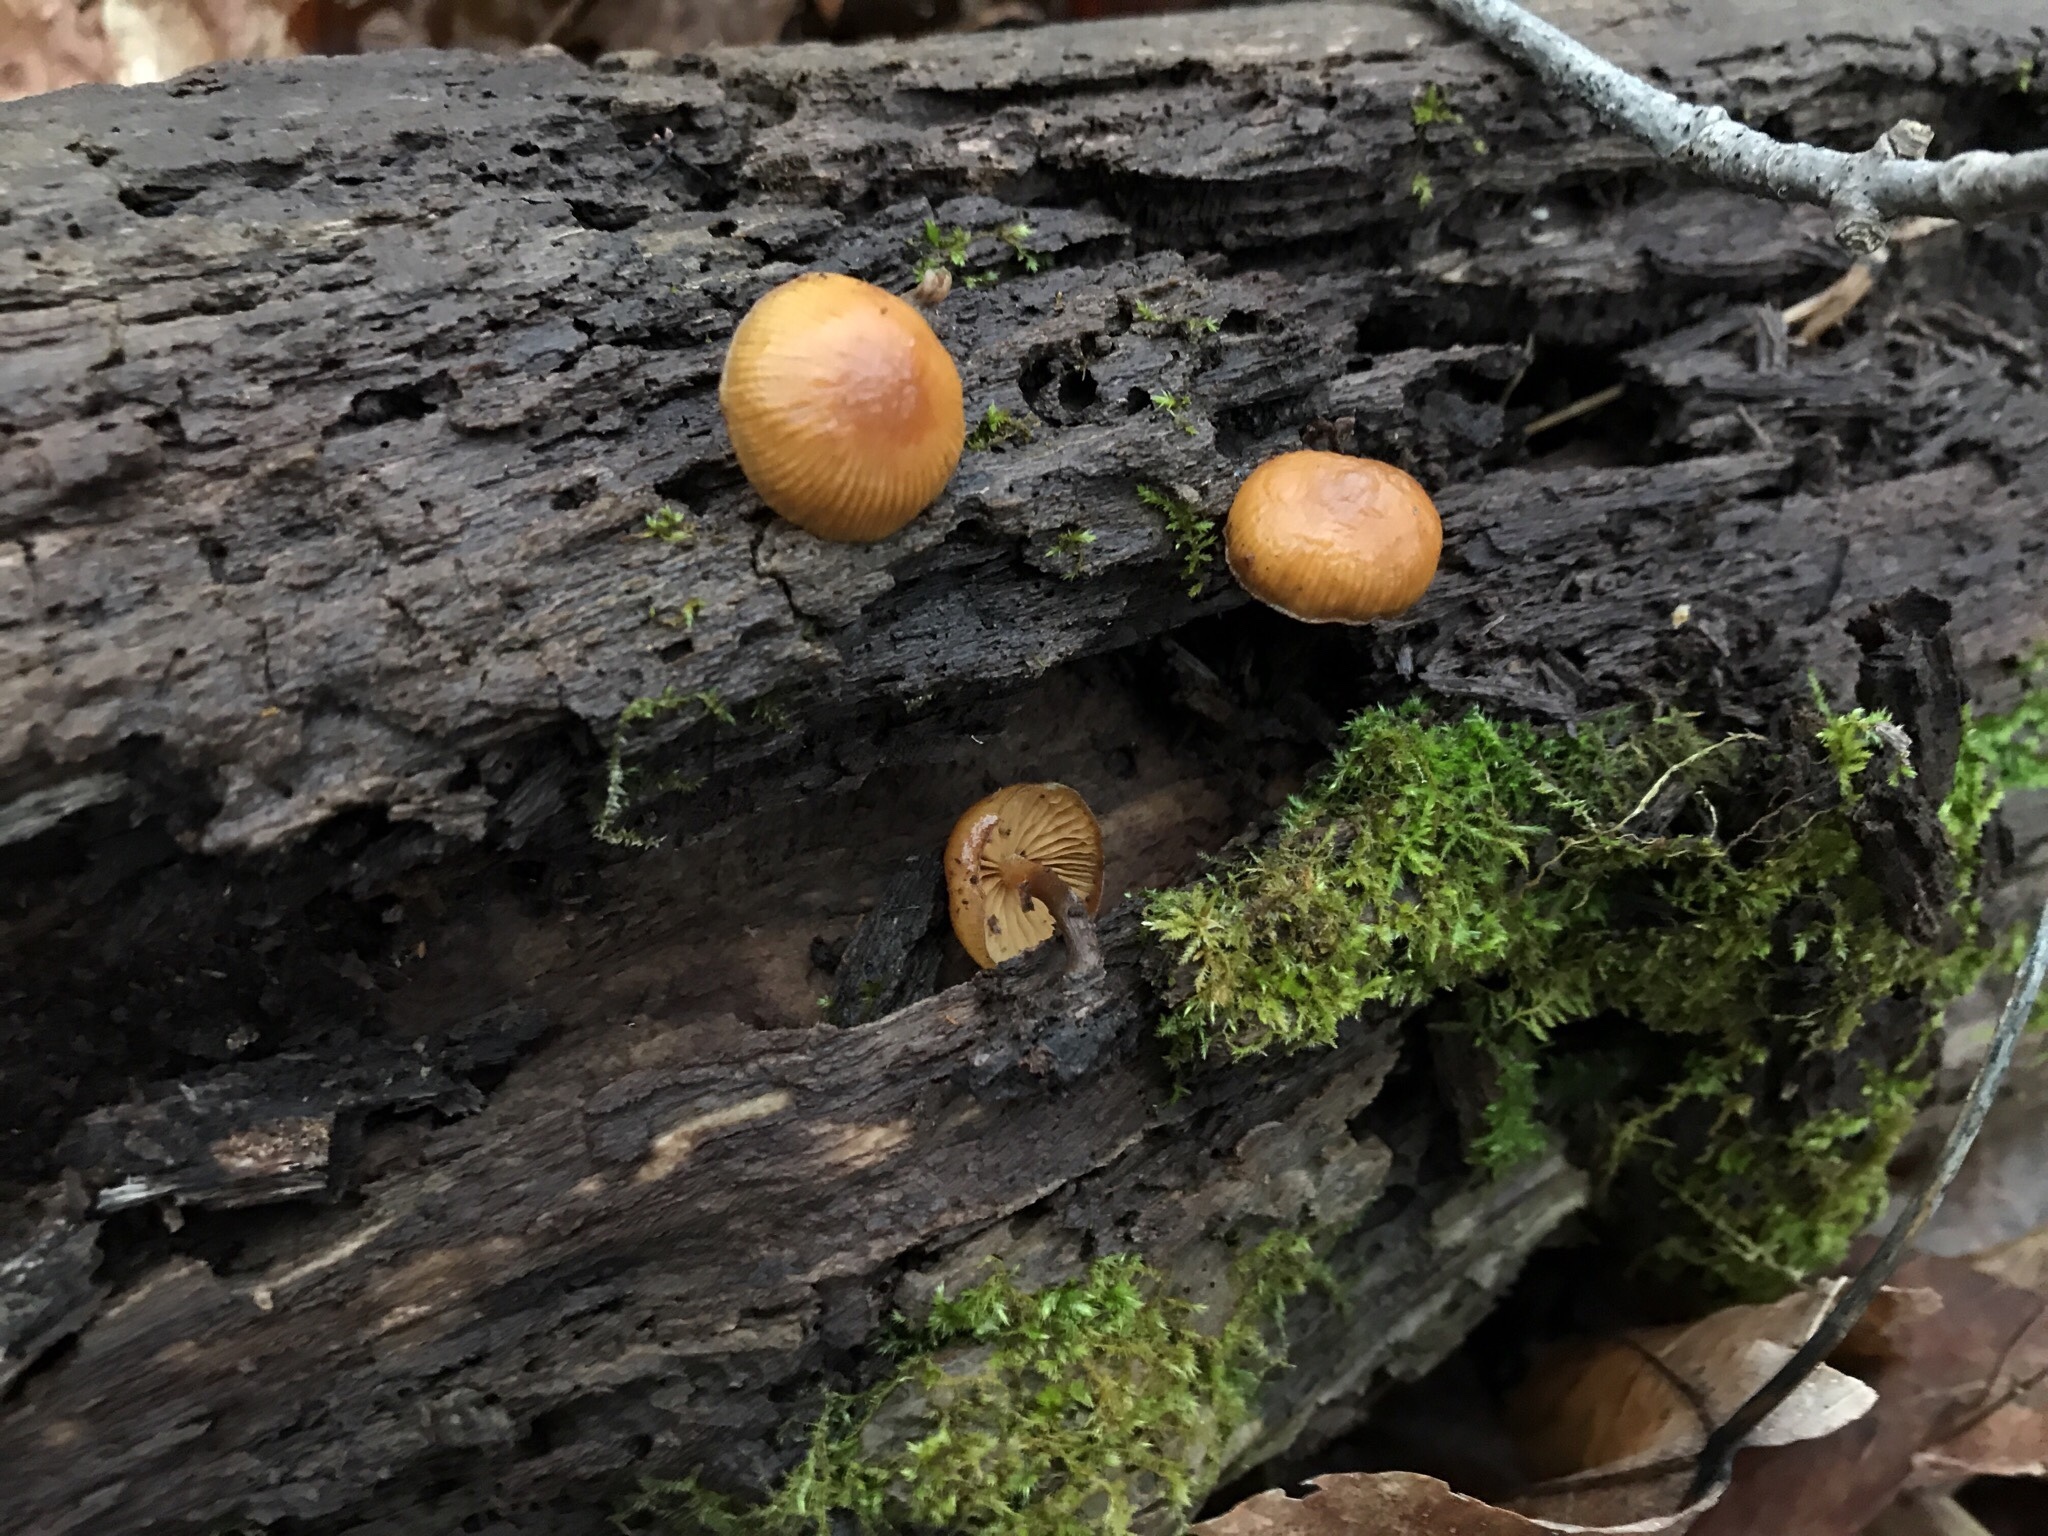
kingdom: Fungi
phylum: Basidiomycota
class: Agaricomycetes
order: Agaricales
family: Hymenogastraceae
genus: Galerina
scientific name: Galerina marginata
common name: Funeral bell
